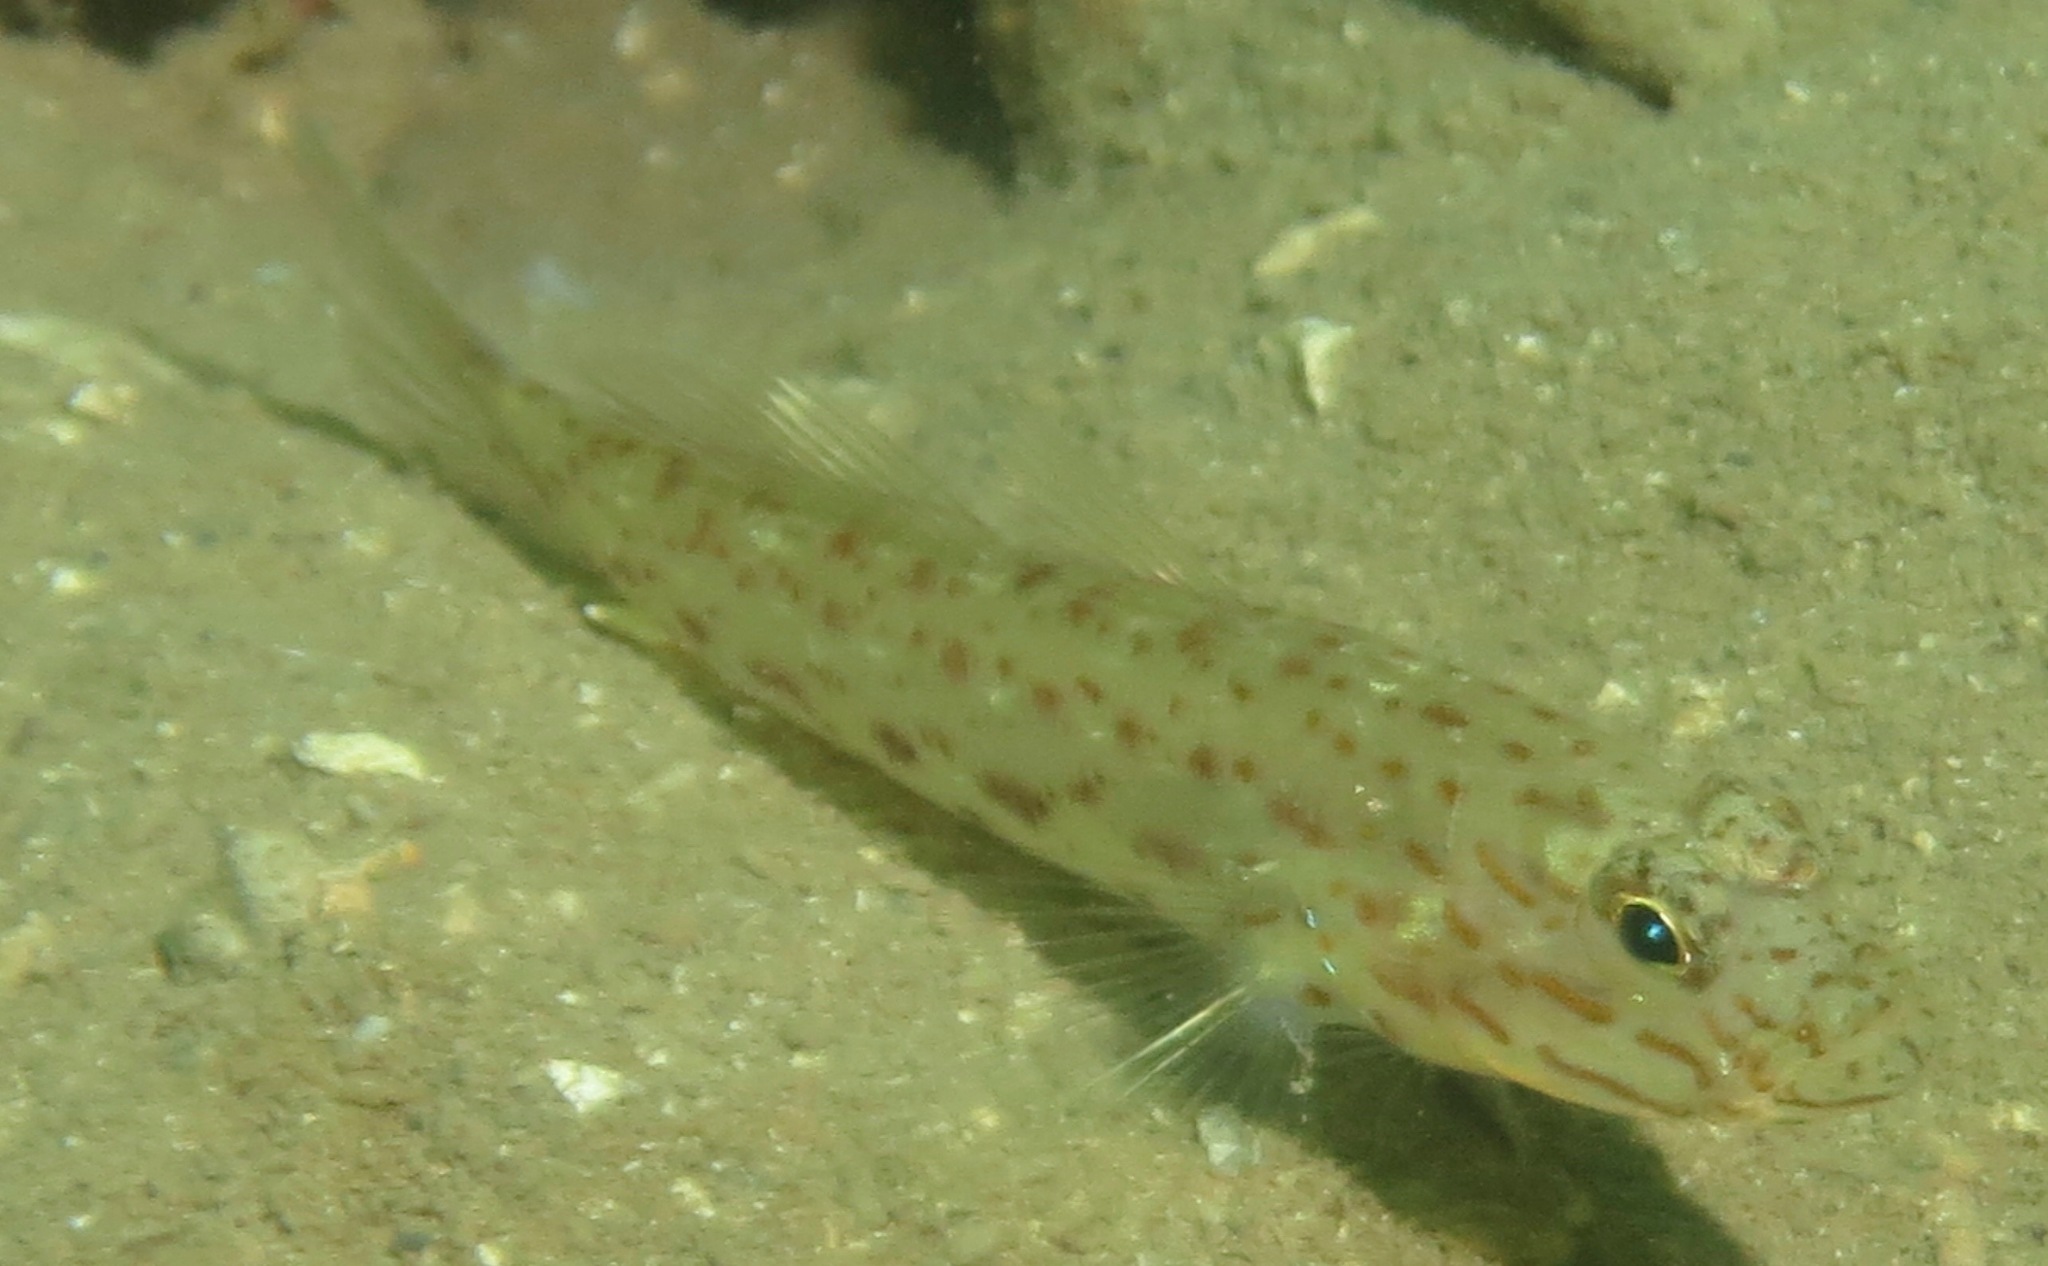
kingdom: Animalia
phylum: Chordata
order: Perciformes
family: Gobiidae
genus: Ctenogobiops
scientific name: Ctenogobiops crocineus
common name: Silverspot shrimpgoby
